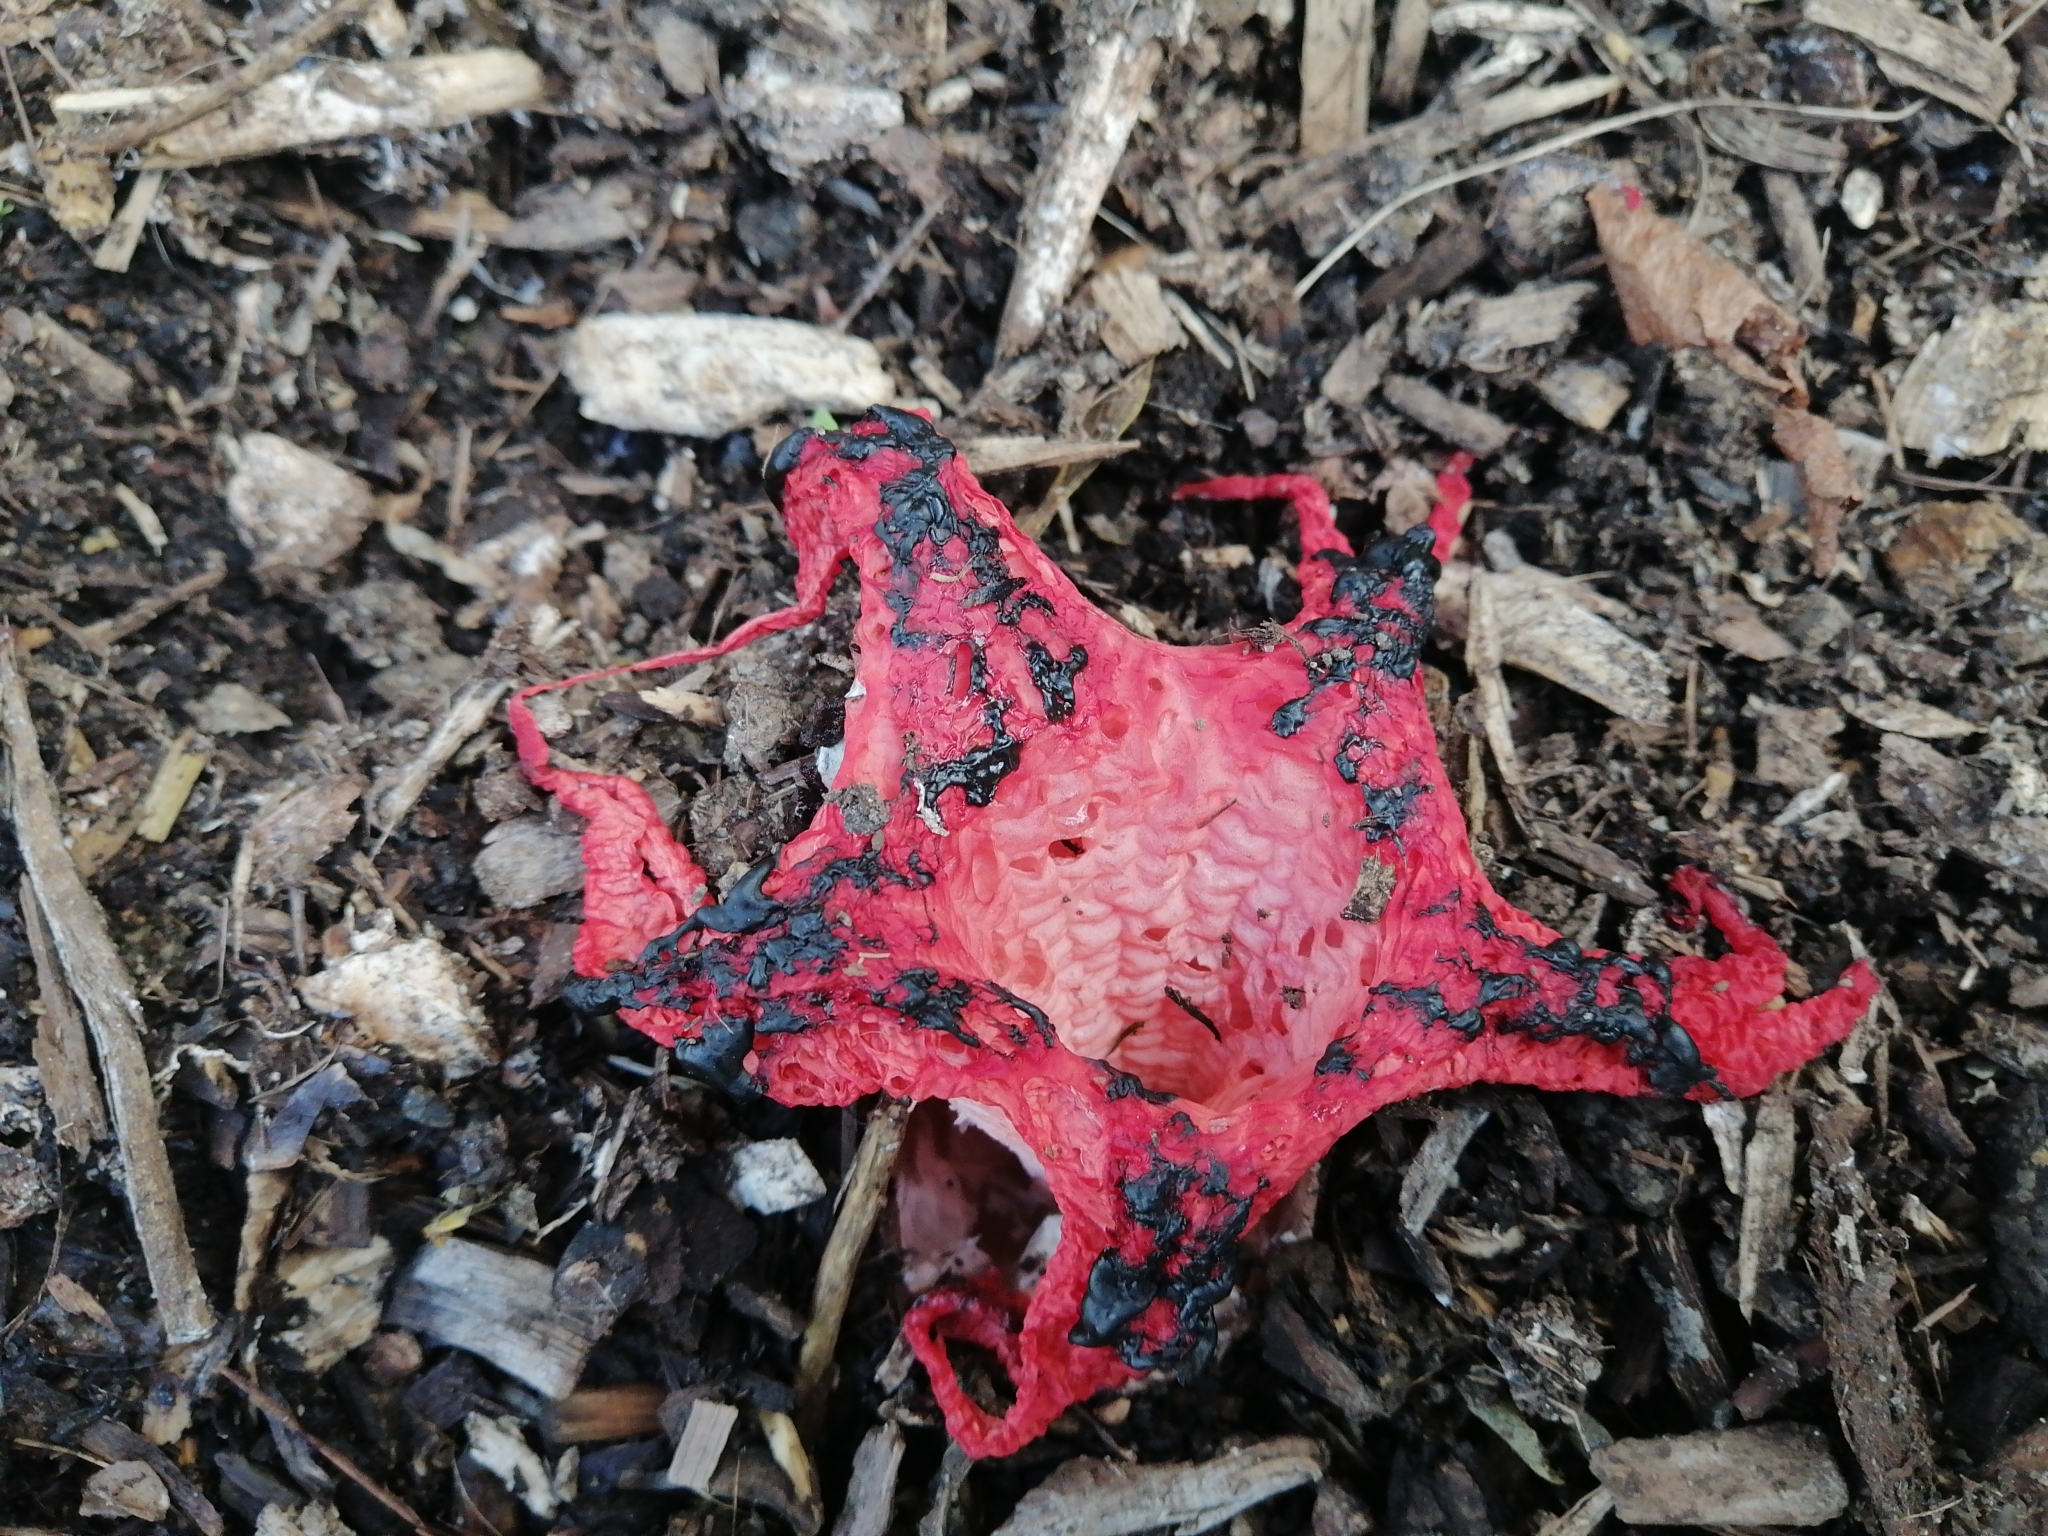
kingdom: Fungi
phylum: Basidiomycota
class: Agaricomycetes
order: Phallales
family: Phallaceae
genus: Clathrus
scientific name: Clathrus archeri
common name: Devil's fingers
